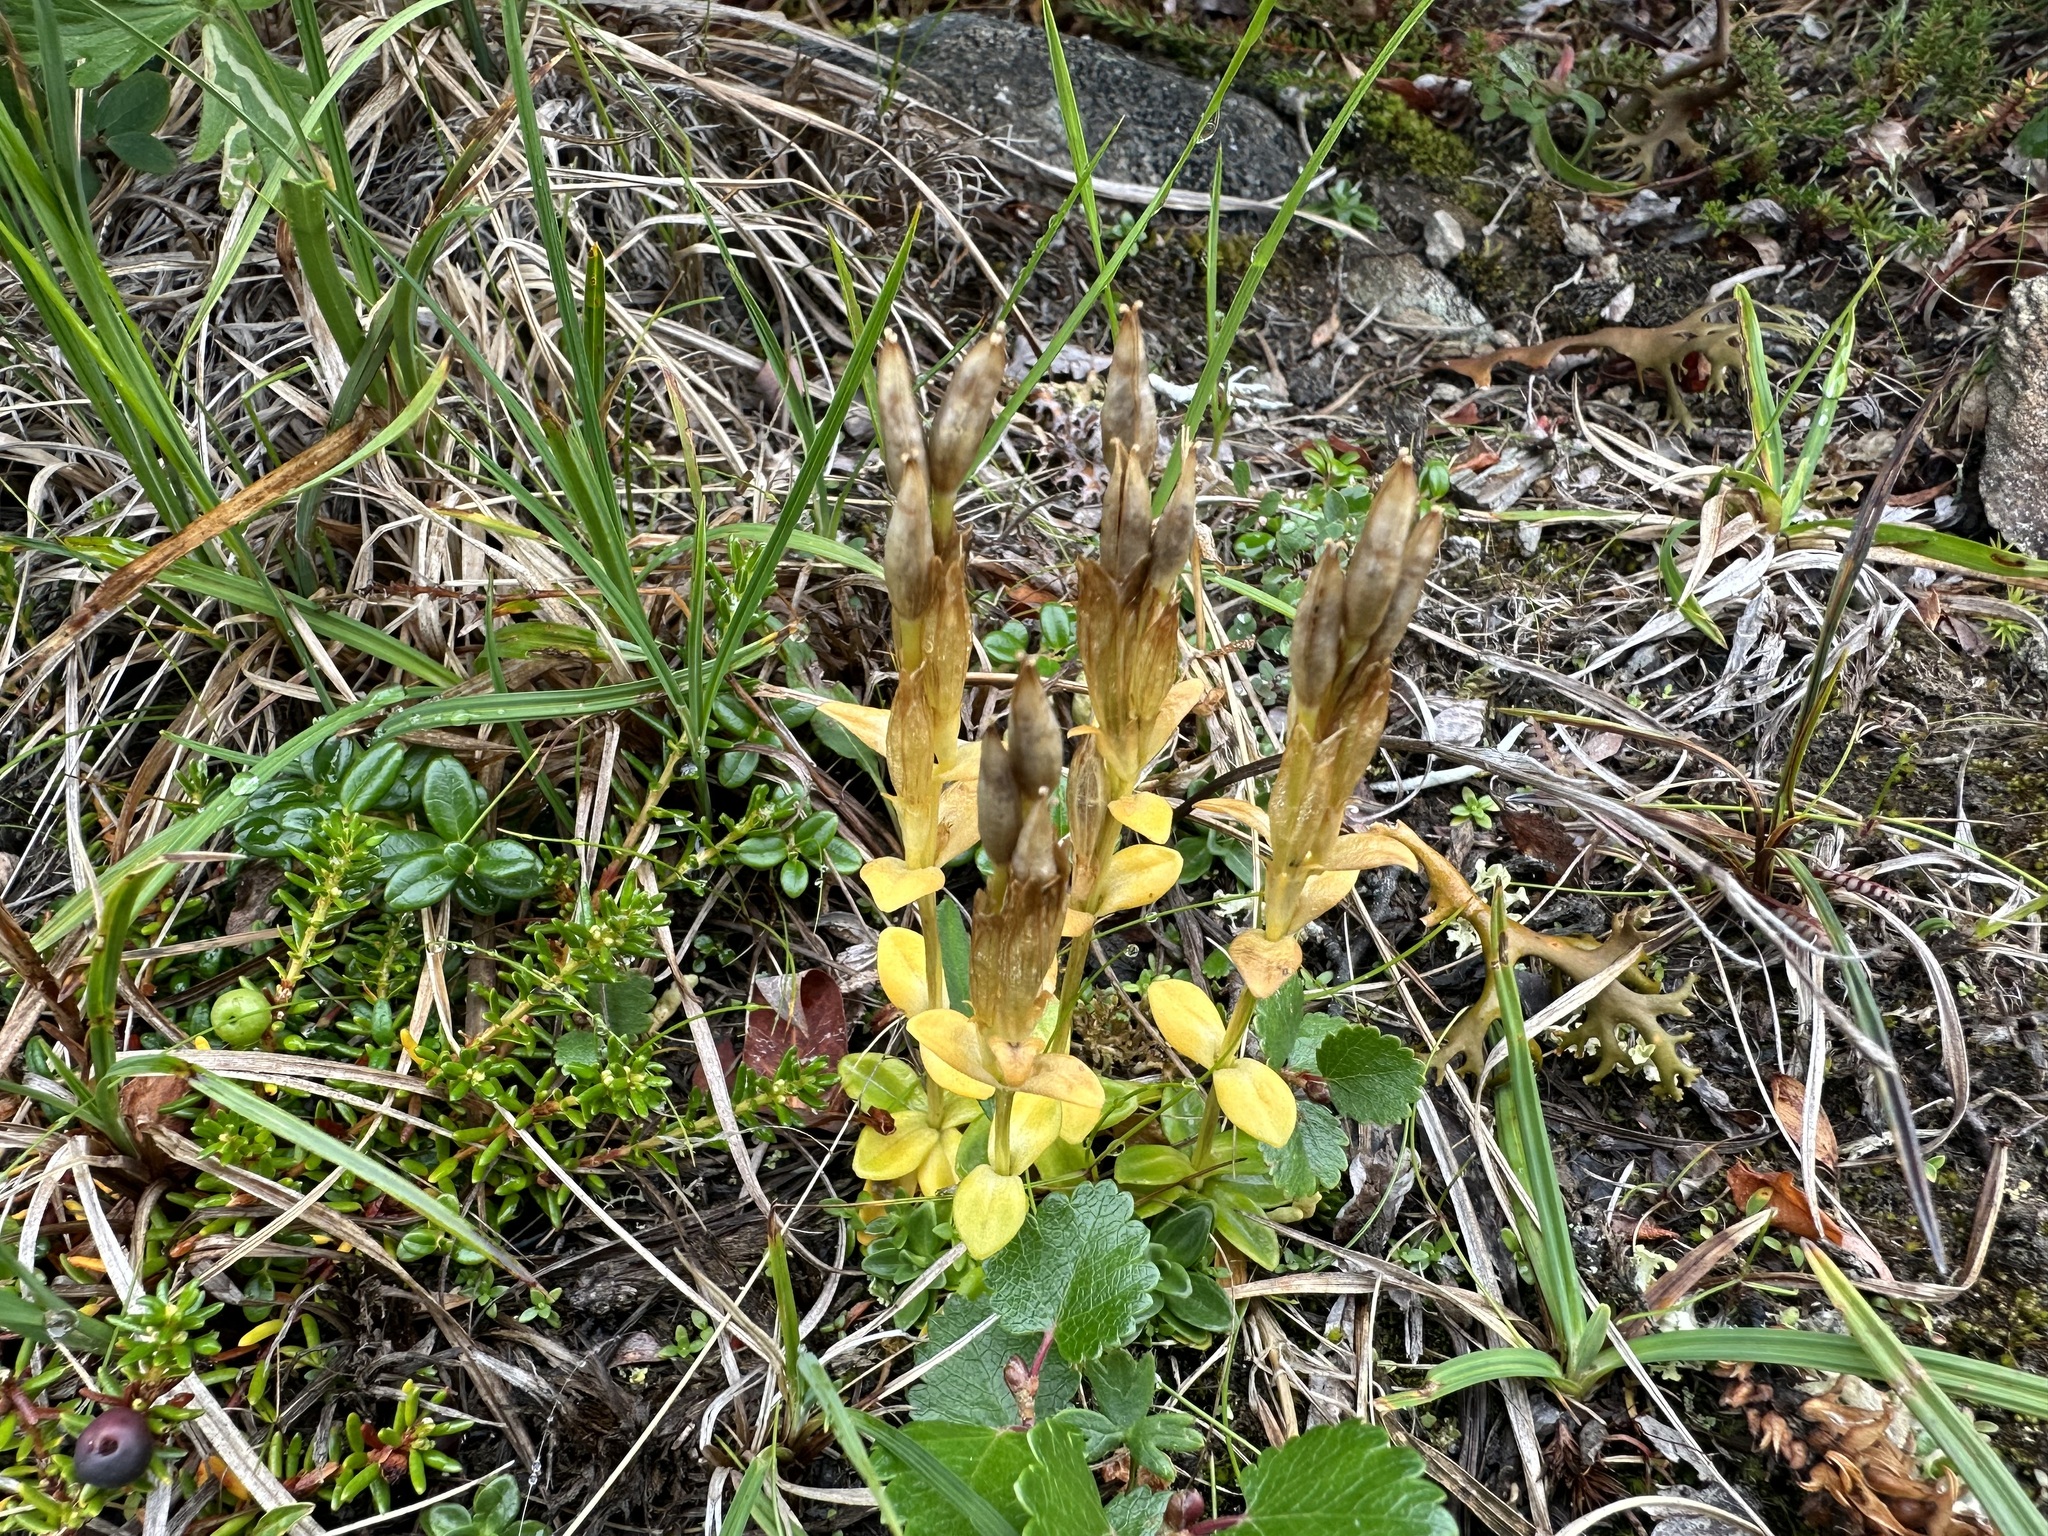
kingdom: Plantae
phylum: Tracheophyta
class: Magnoliopsida
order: Gentianales
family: Gentianaceae
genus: Gentiana
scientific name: Gentiana glauca
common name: Alpine gentian
